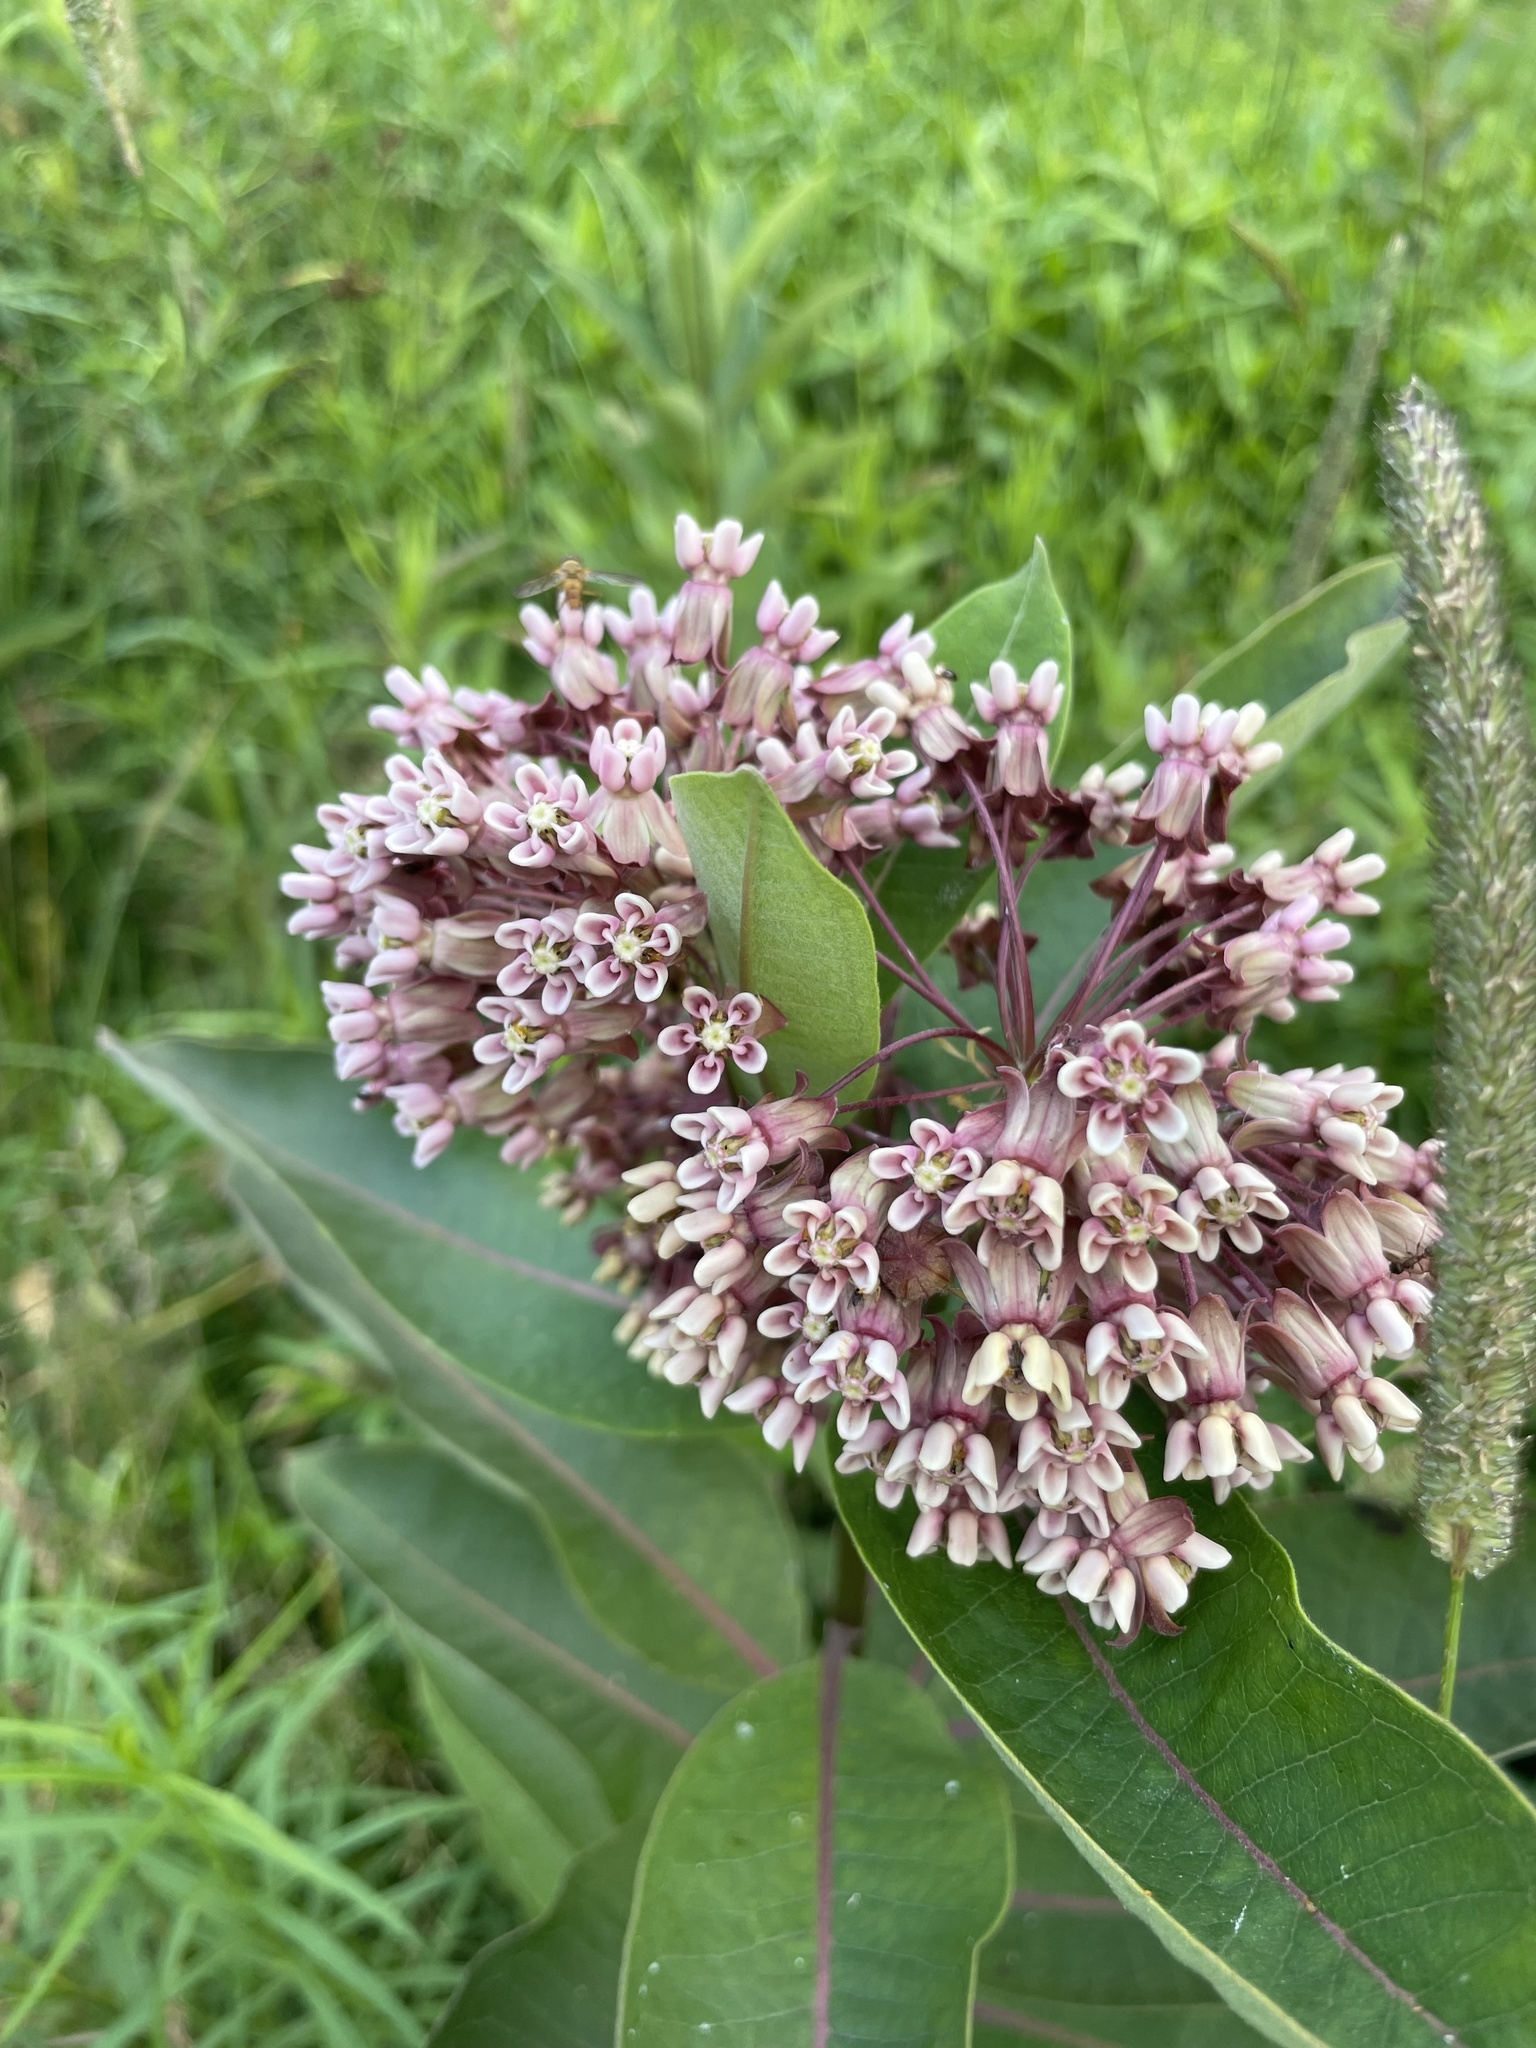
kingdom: Plantae
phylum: Tracheophyta
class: Magnoliopsida
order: Gentianales
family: Apocynaceae
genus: Asclepias
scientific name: Asclepias syriaca
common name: Common milkweed
